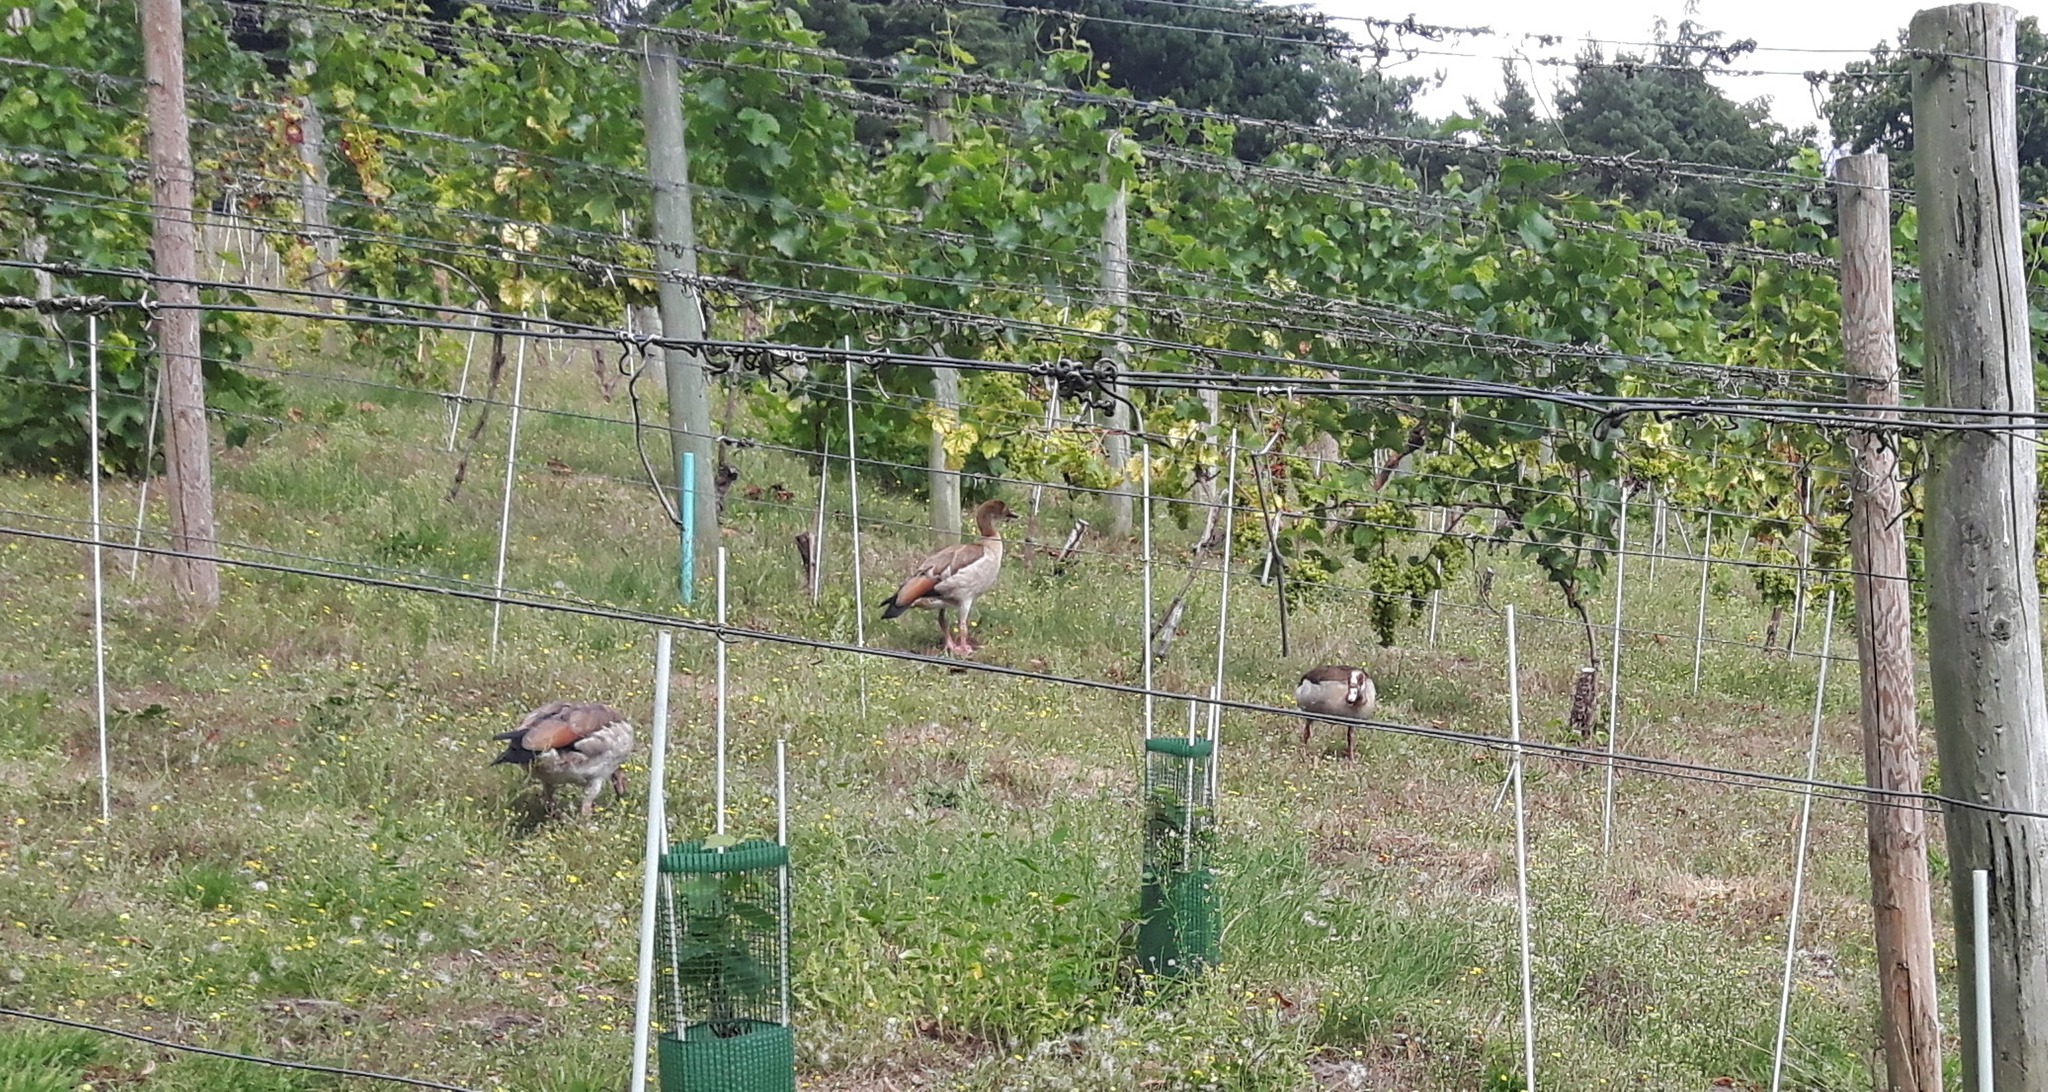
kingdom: Animalia
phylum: Chordata
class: Aves
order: Anseriformes
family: Anatidae
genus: Alopochen
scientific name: Alopochen aegyptiaca
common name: Egyptian goose
